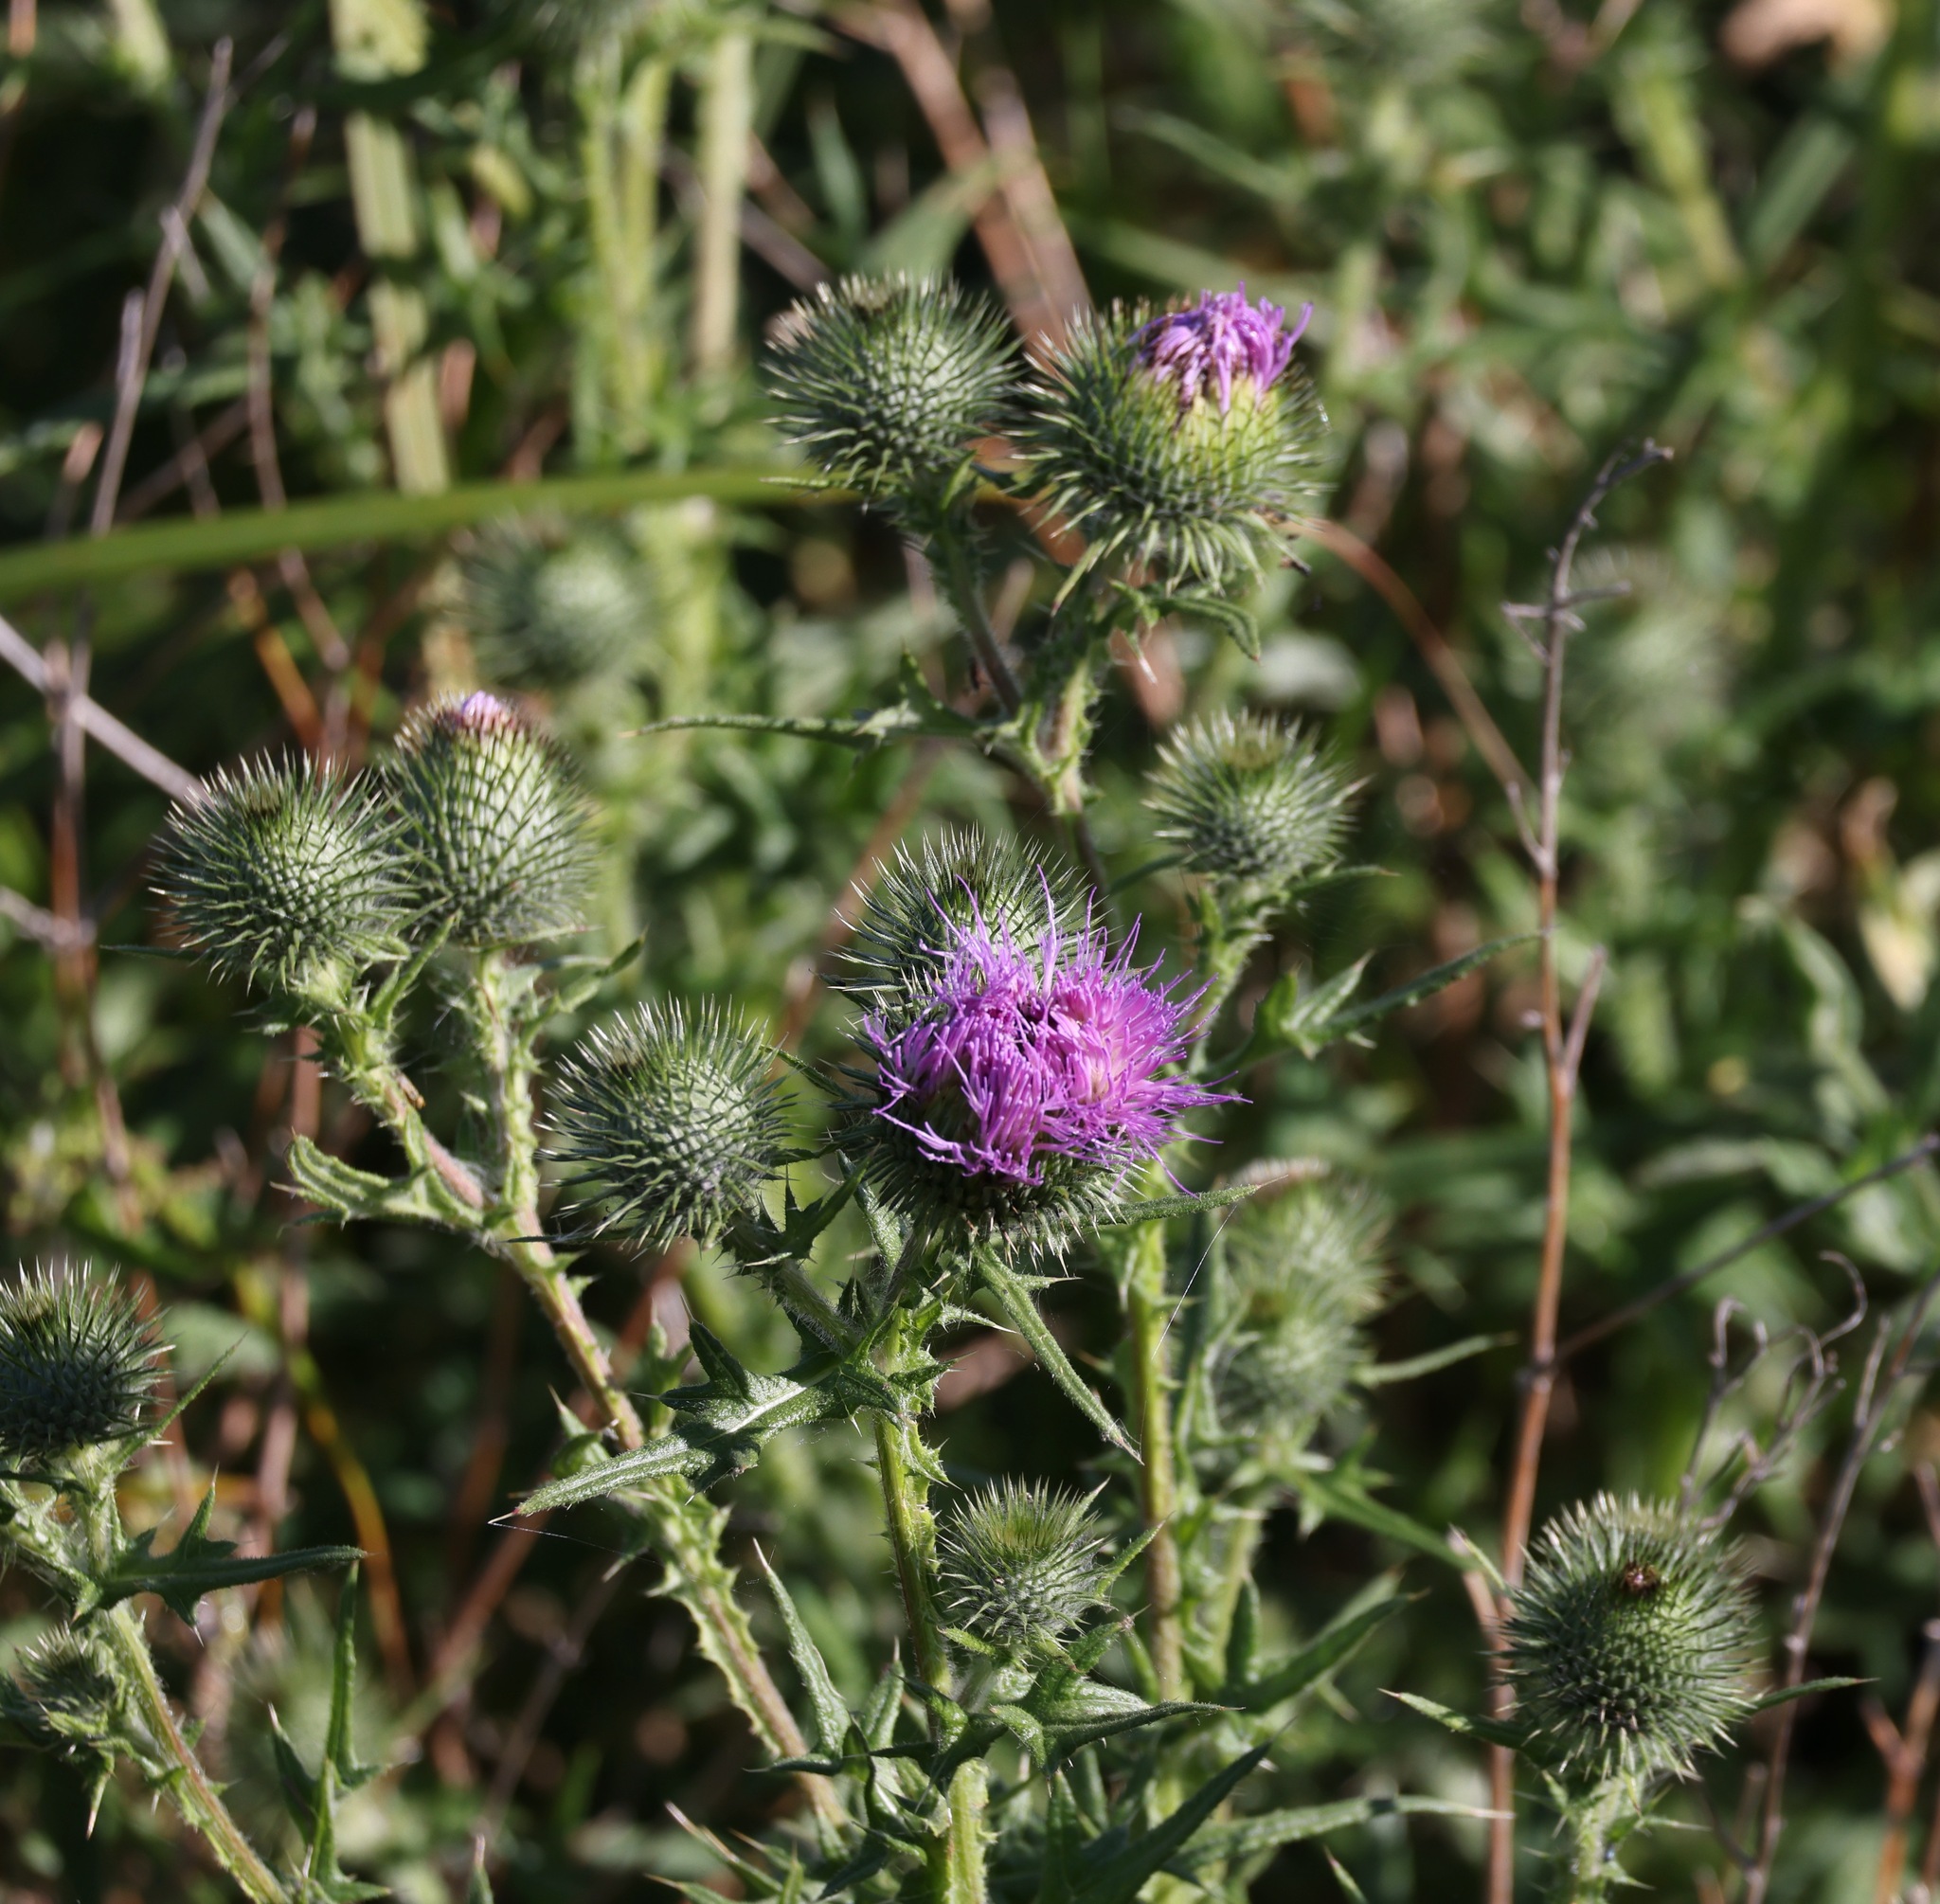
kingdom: Plantae
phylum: Tracheophyta
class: Magnoliopsida
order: Asterales
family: Asteraceae
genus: Cirsium
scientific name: Cirsium vulgare
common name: Bull thistle
